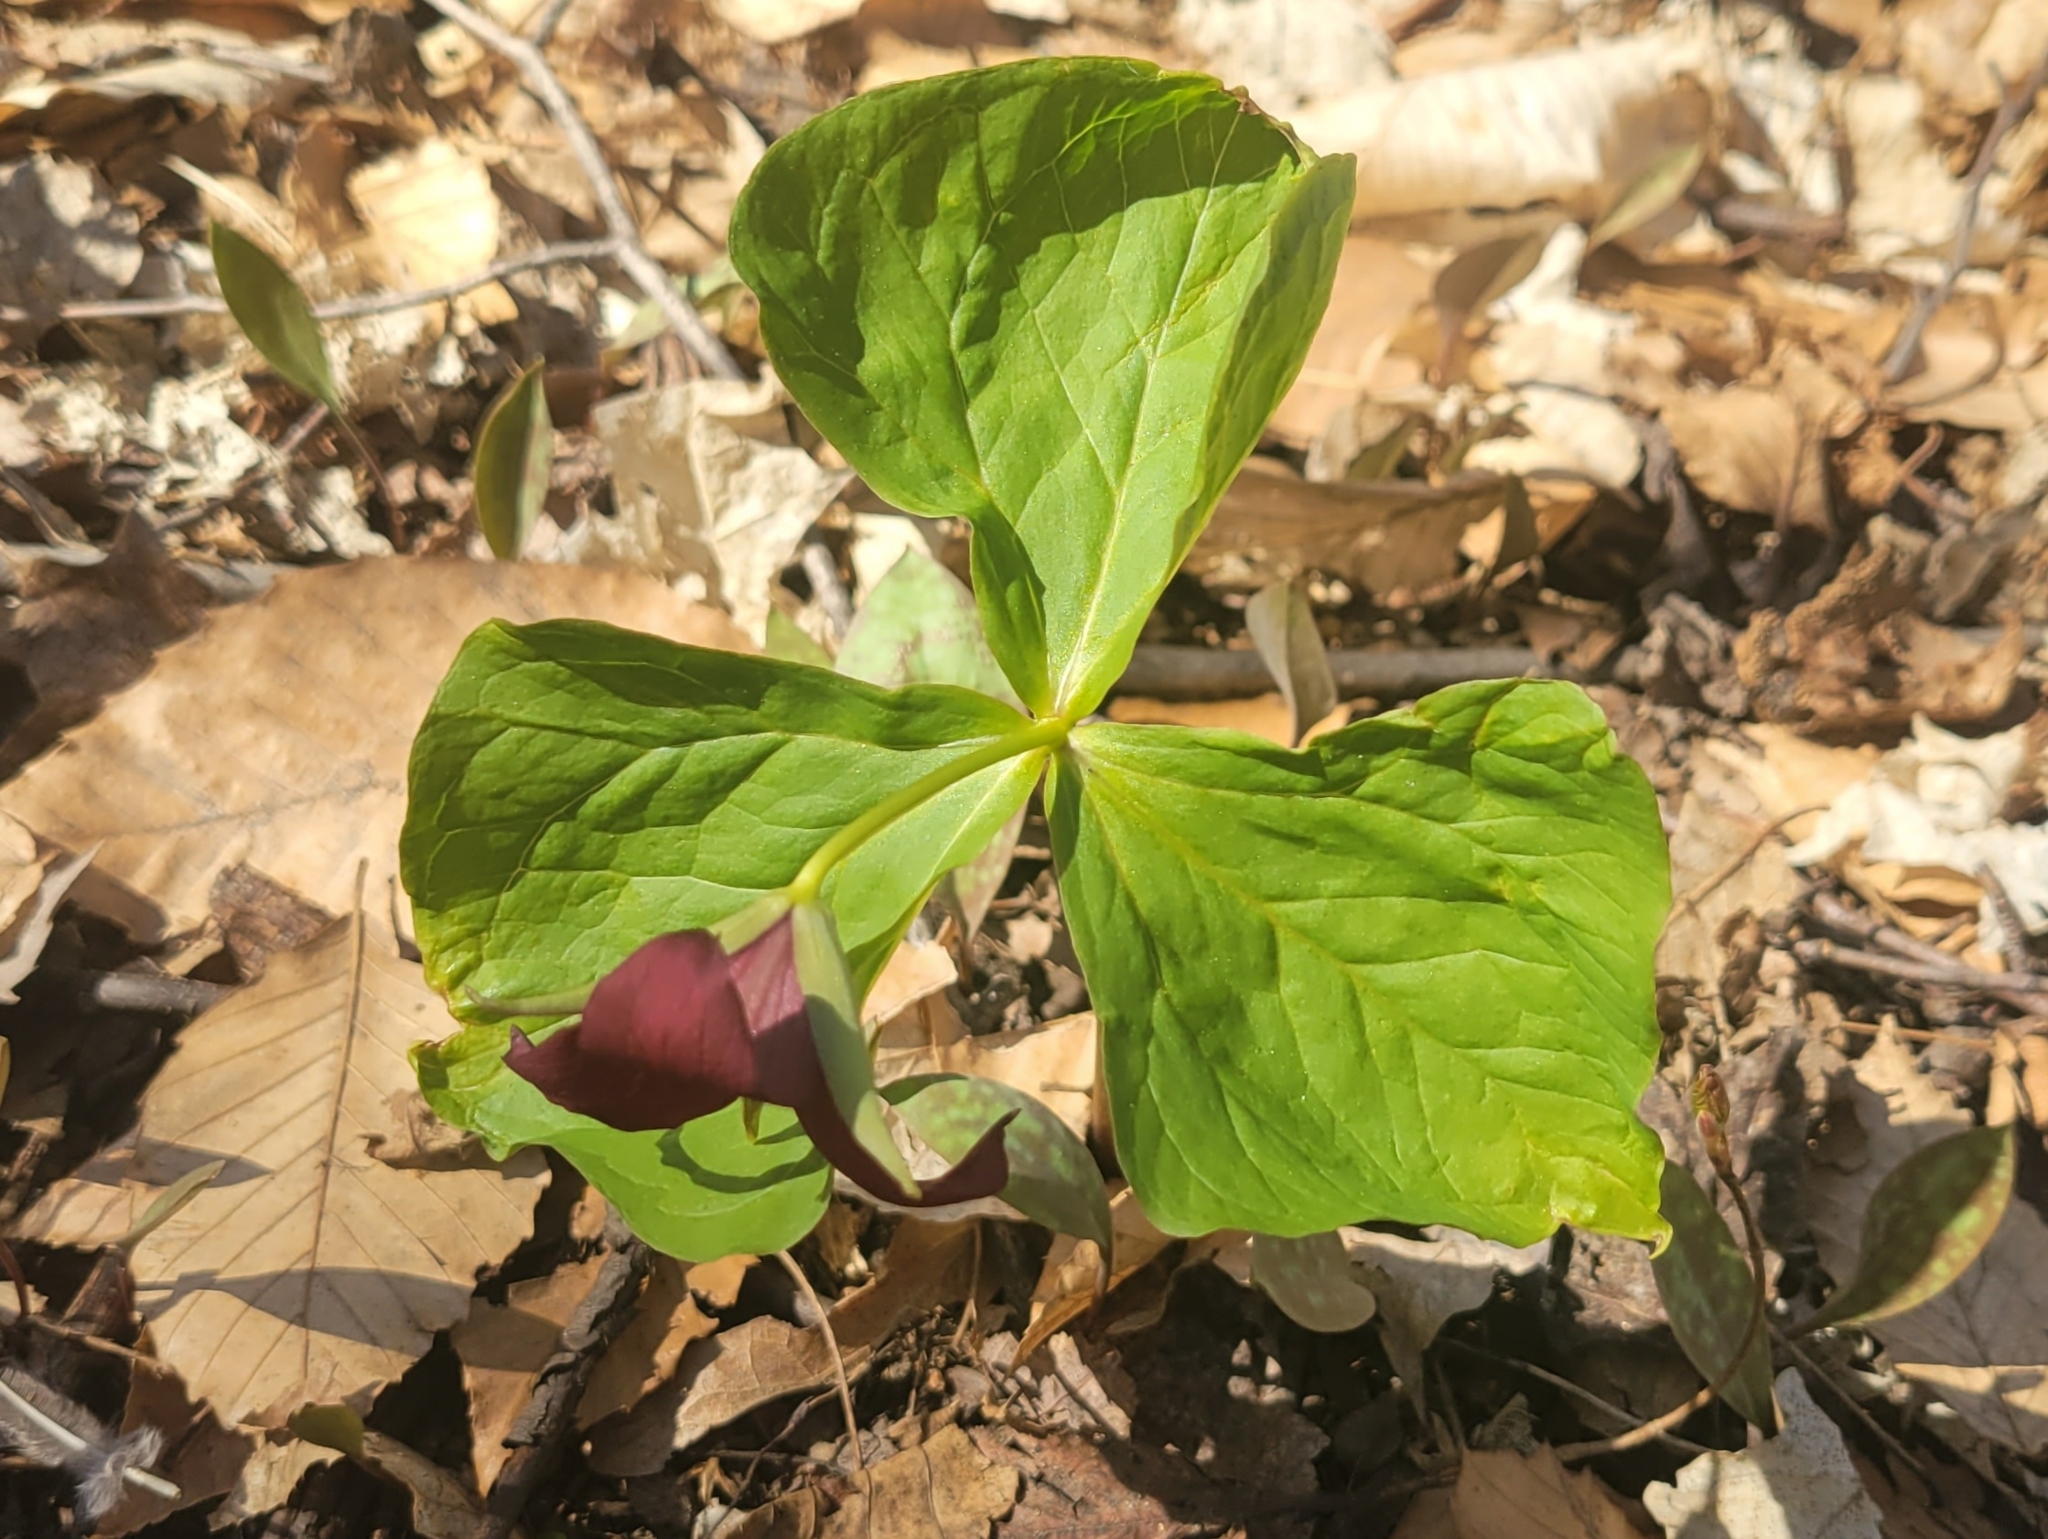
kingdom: Plantae
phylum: Tracheophyta
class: Liliopsida
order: Liliales
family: Melanthiaceae
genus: Trillium
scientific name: Trillium erectum
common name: Purple trillium
